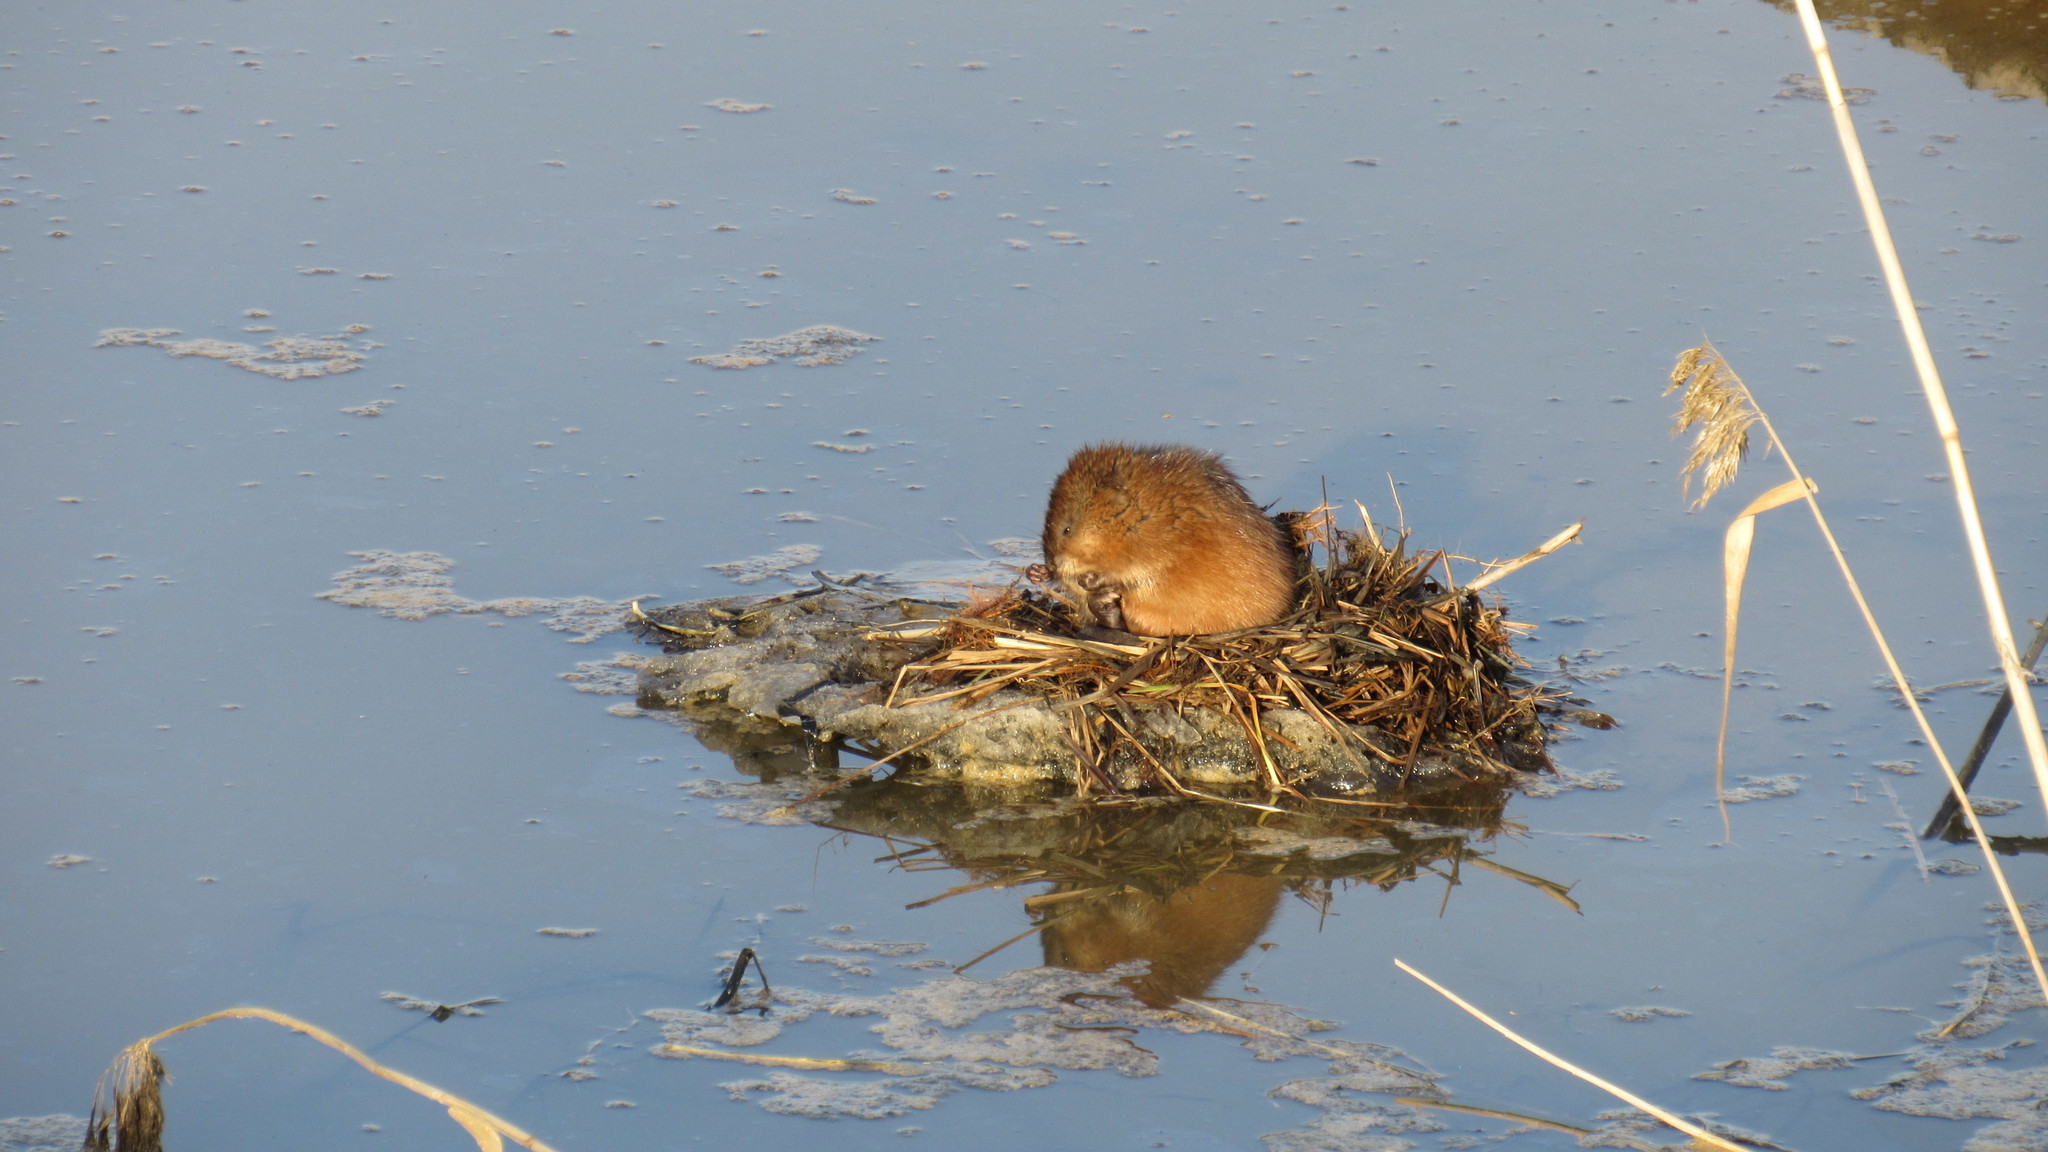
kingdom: Animalia
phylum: Chordata
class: Mammalia
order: Rodentia
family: Cricetidae
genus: Ondatra
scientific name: Ondatra zibethicus
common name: Muskrat
